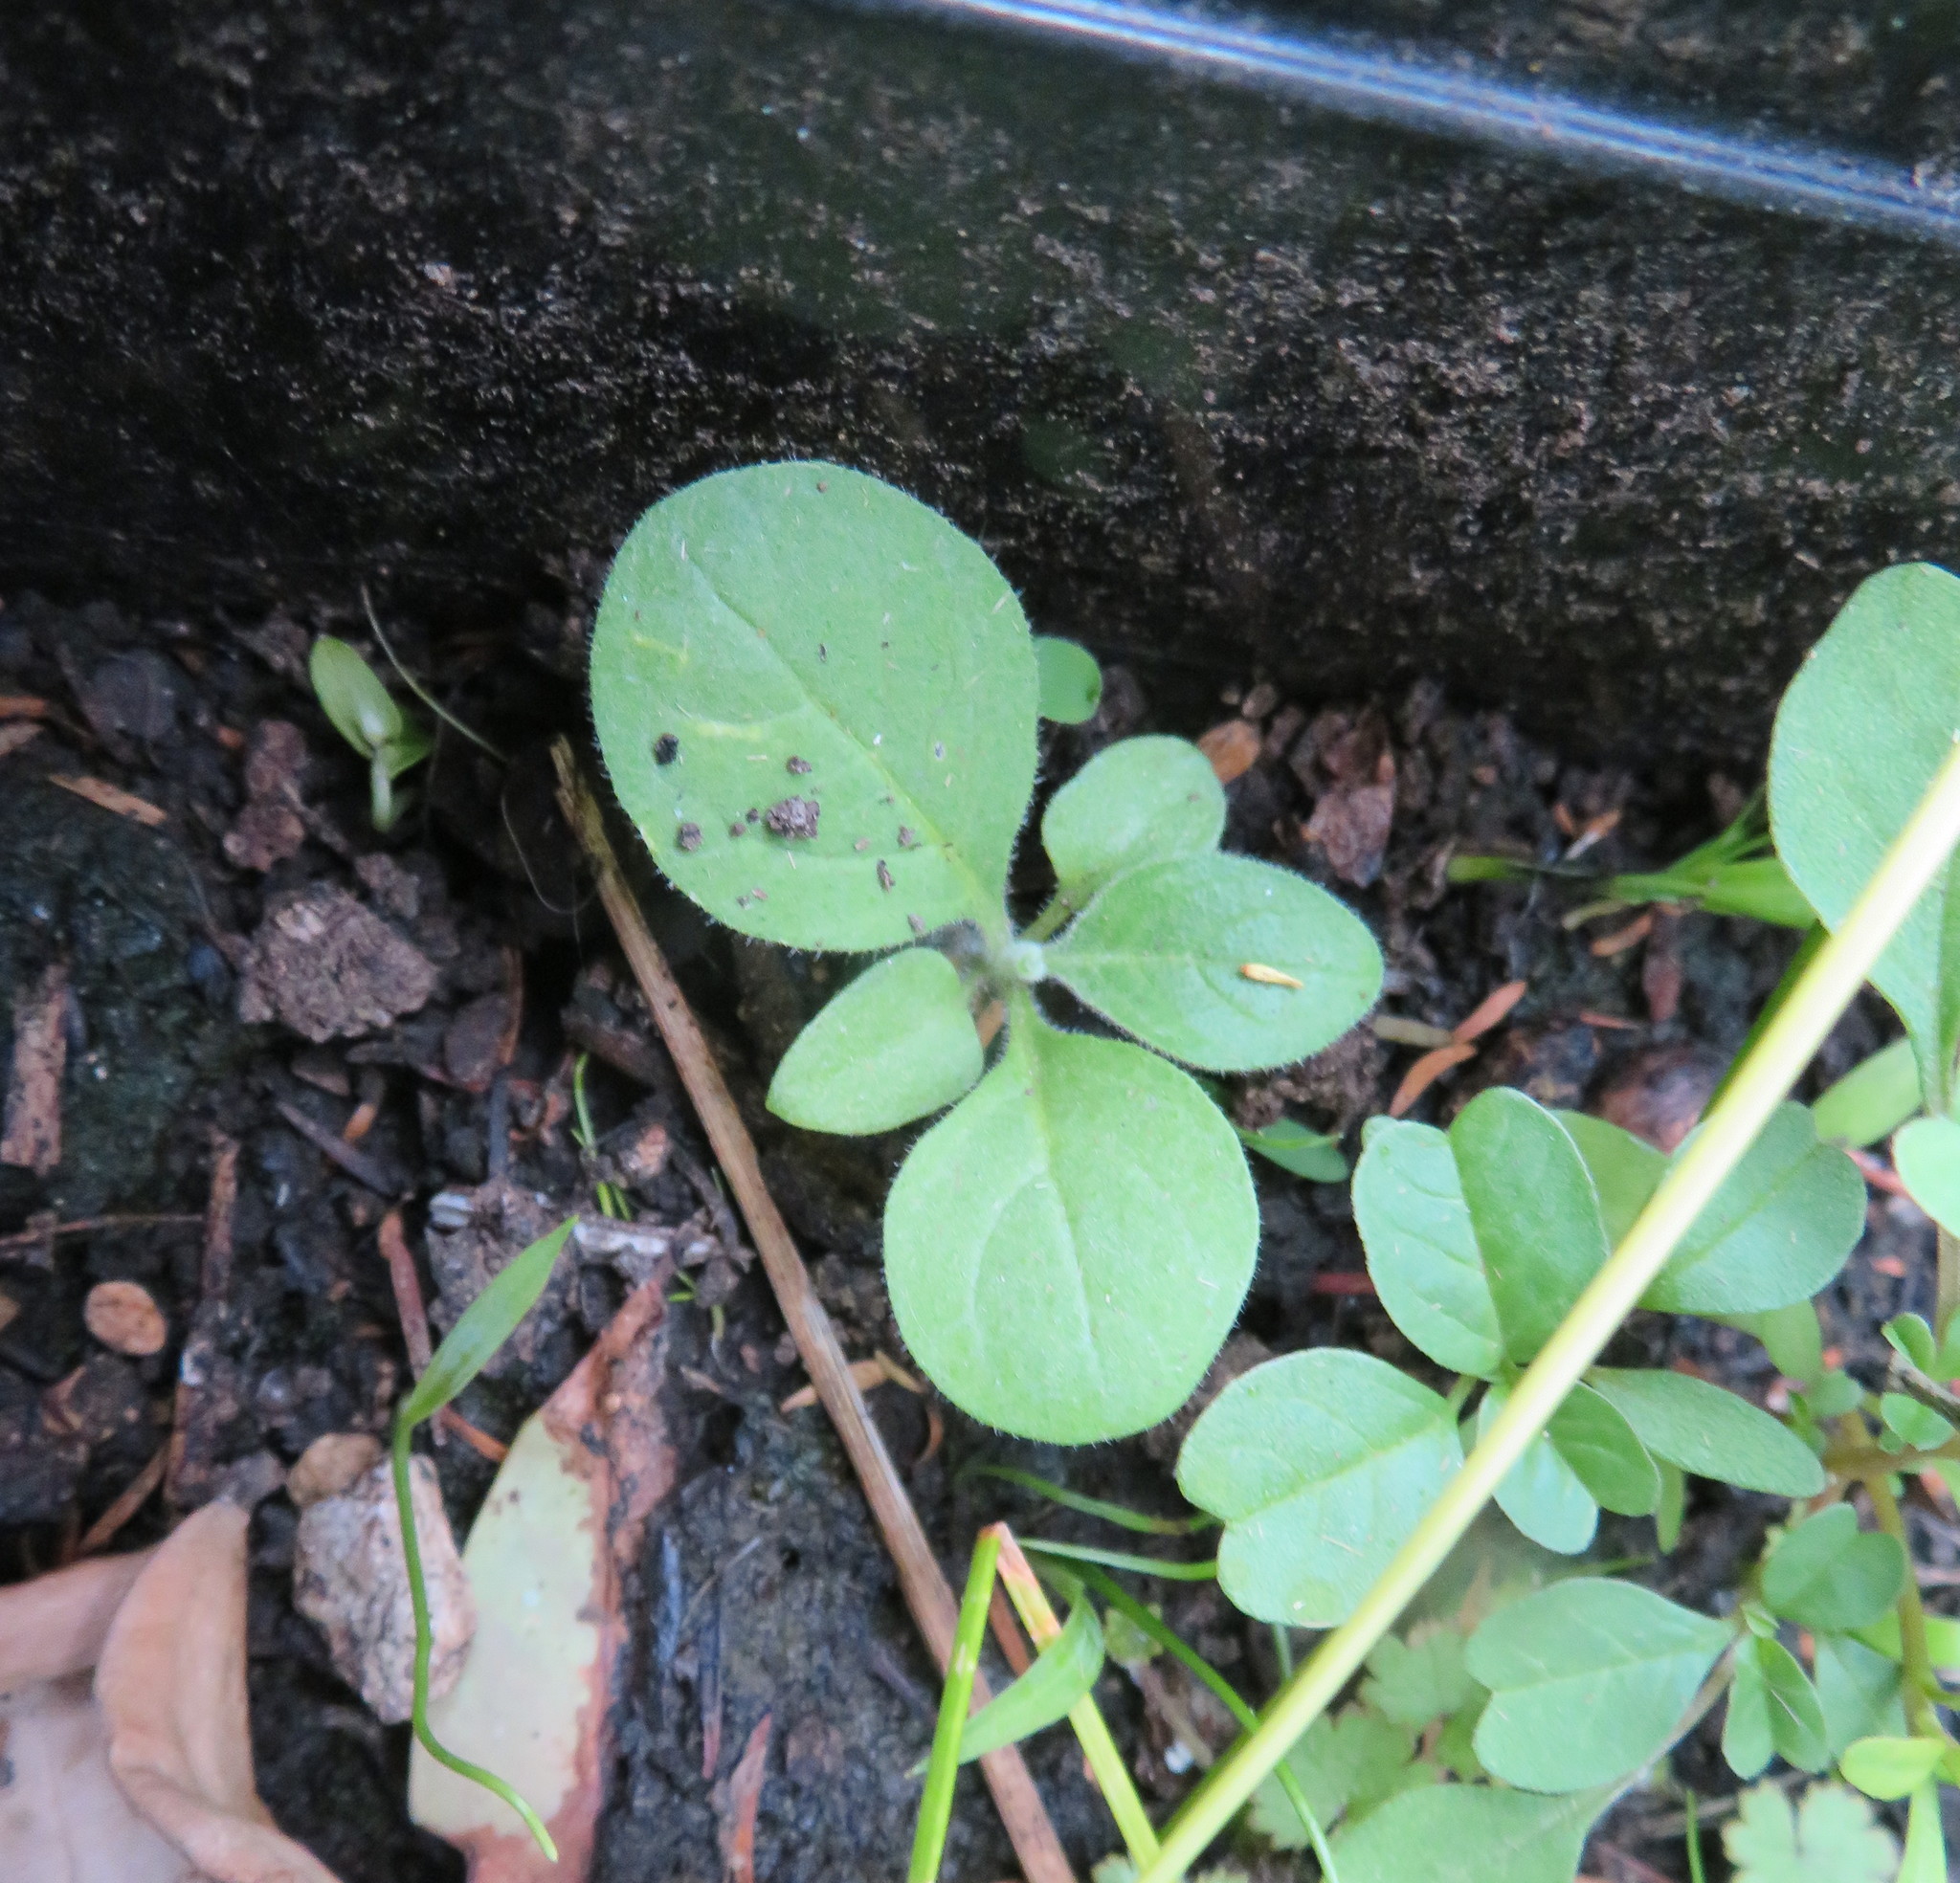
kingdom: Plantae
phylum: Tracheophyta
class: Magnoliopsida
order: Solanales
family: Solanaceae
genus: Solanum
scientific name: Solanum mauritianum
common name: Earleaf nightshade
